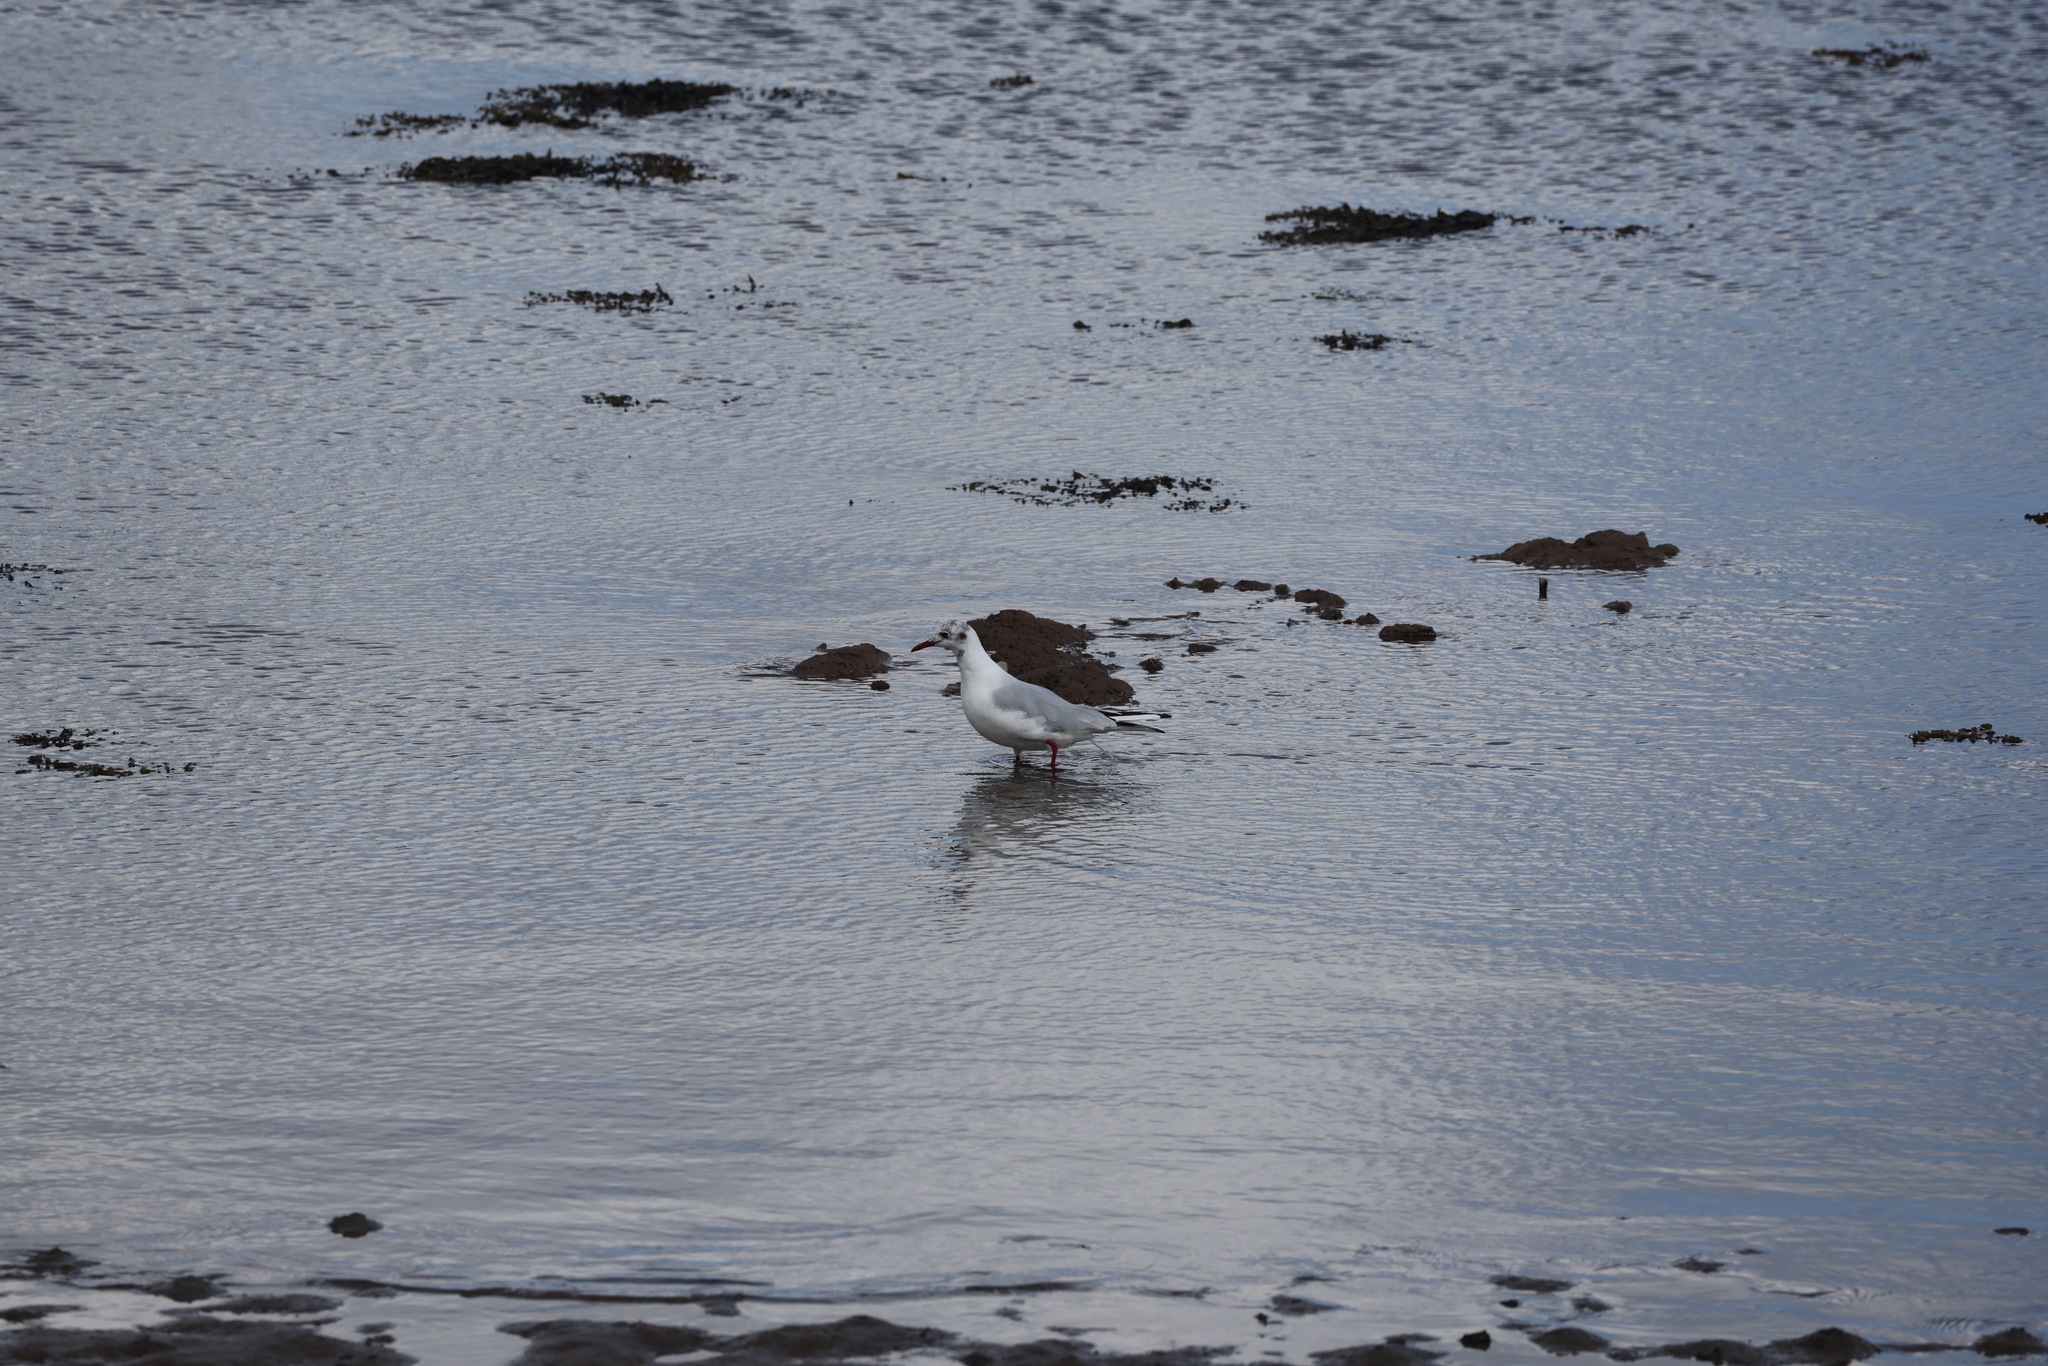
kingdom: Animalia
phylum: Chordata
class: Aves
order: Charadriiformes
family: Laridae
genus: Chroicocephalus
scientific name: Chroicocephalus ridibundus
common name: Black-headed gull
